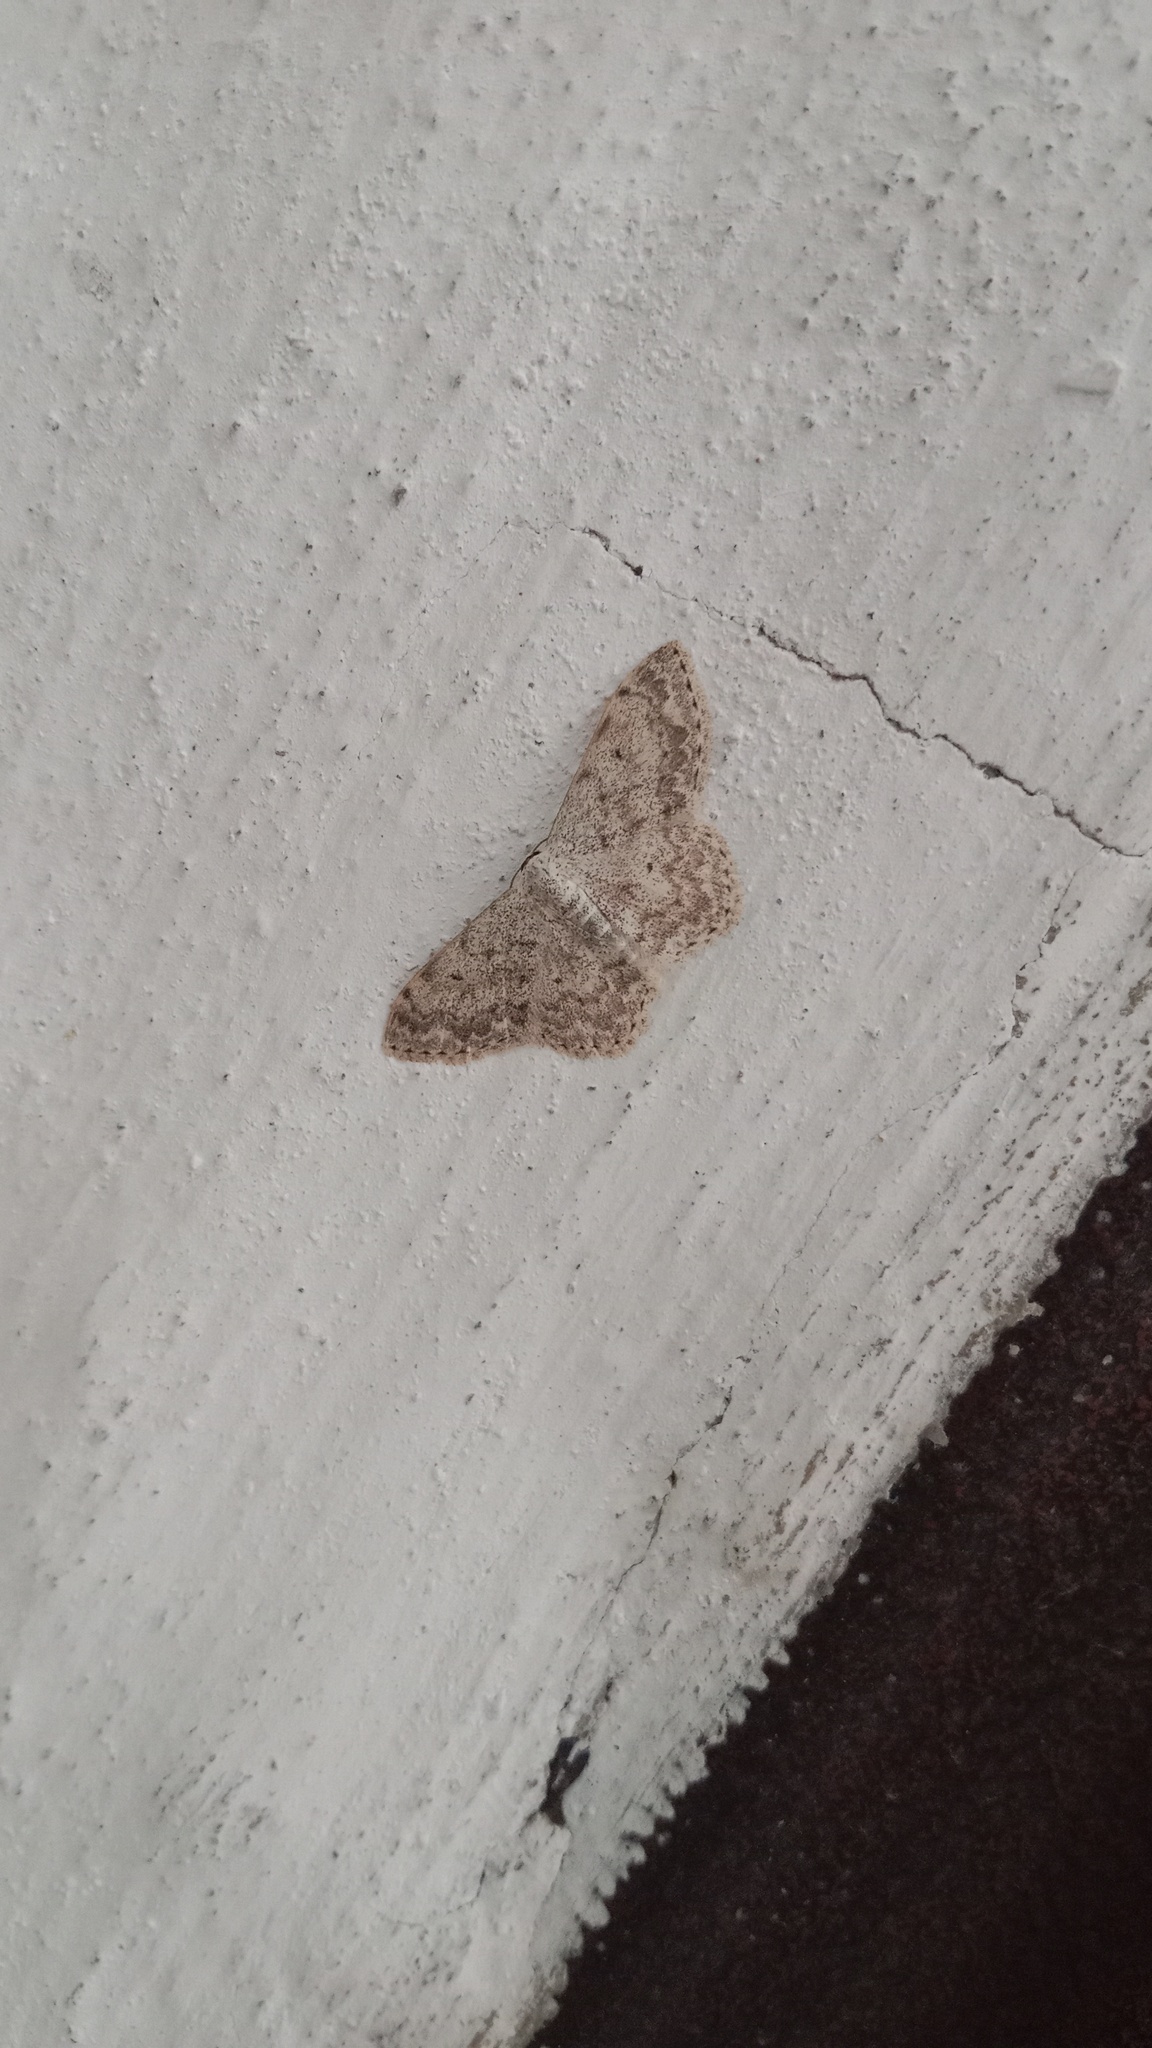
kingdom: Animalia
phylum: Arthropoda
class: Insecta
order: Lepidoptera
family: Geometridae
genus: Scopula
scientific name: Scopula marginepunctata
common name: Mullein wave
